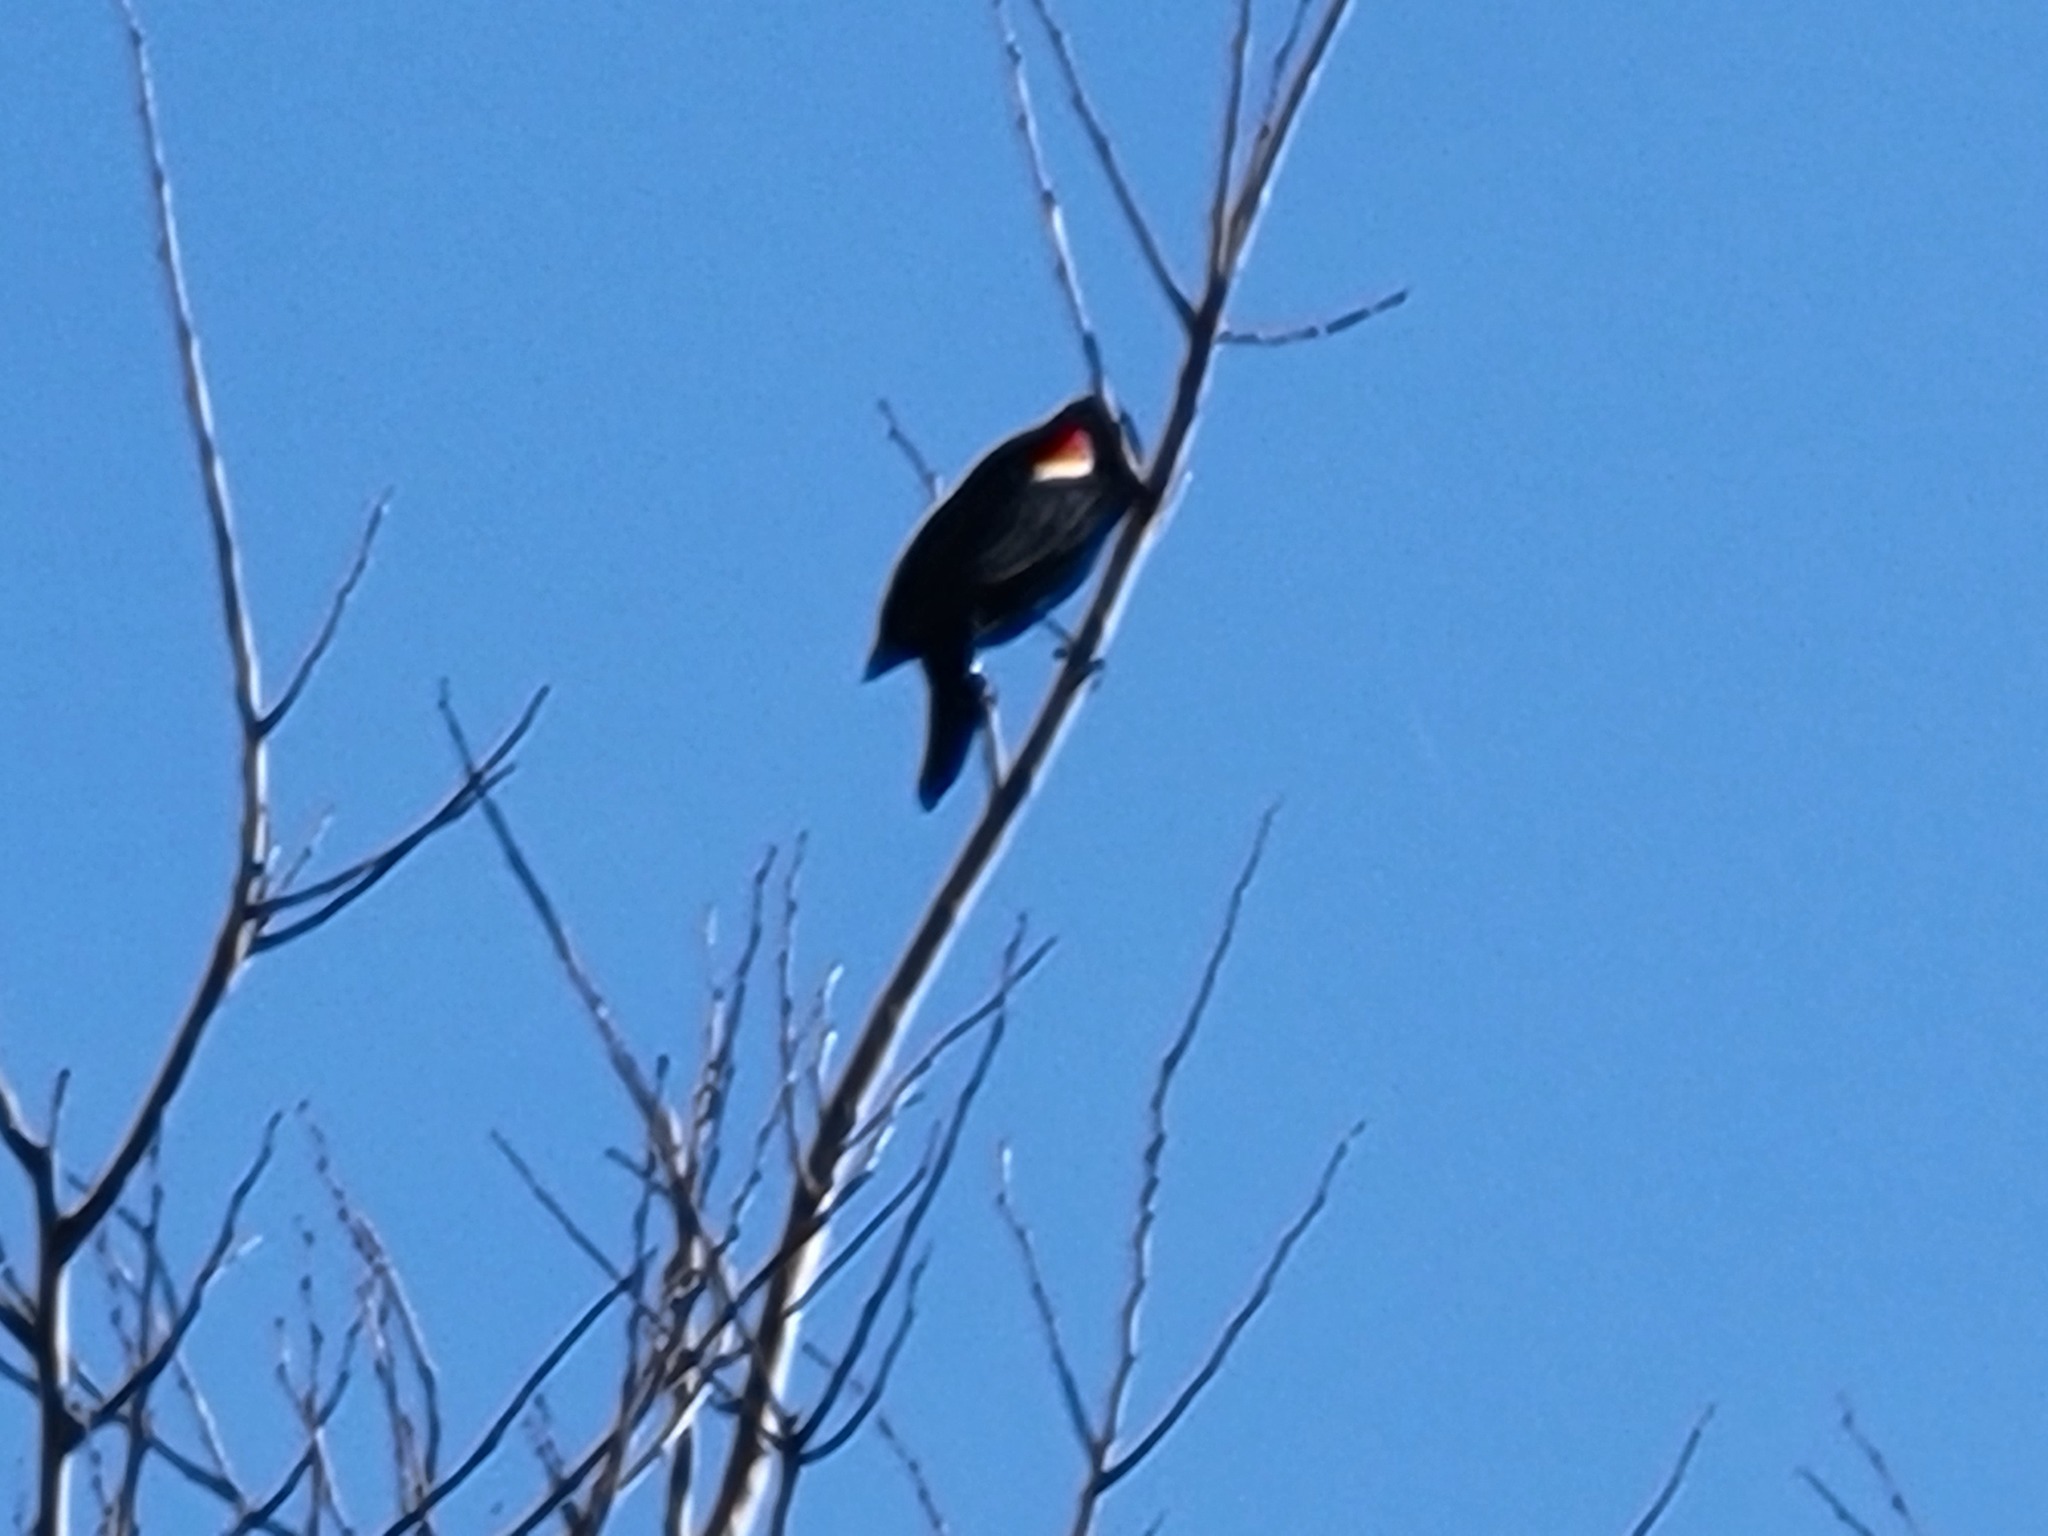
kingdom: Animalia
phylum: Chordata
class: Aves
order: Passeriformes
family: Icteridae
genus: Agelaius
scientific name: Agelaius phoeniceus
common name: Red-winged blackbird
